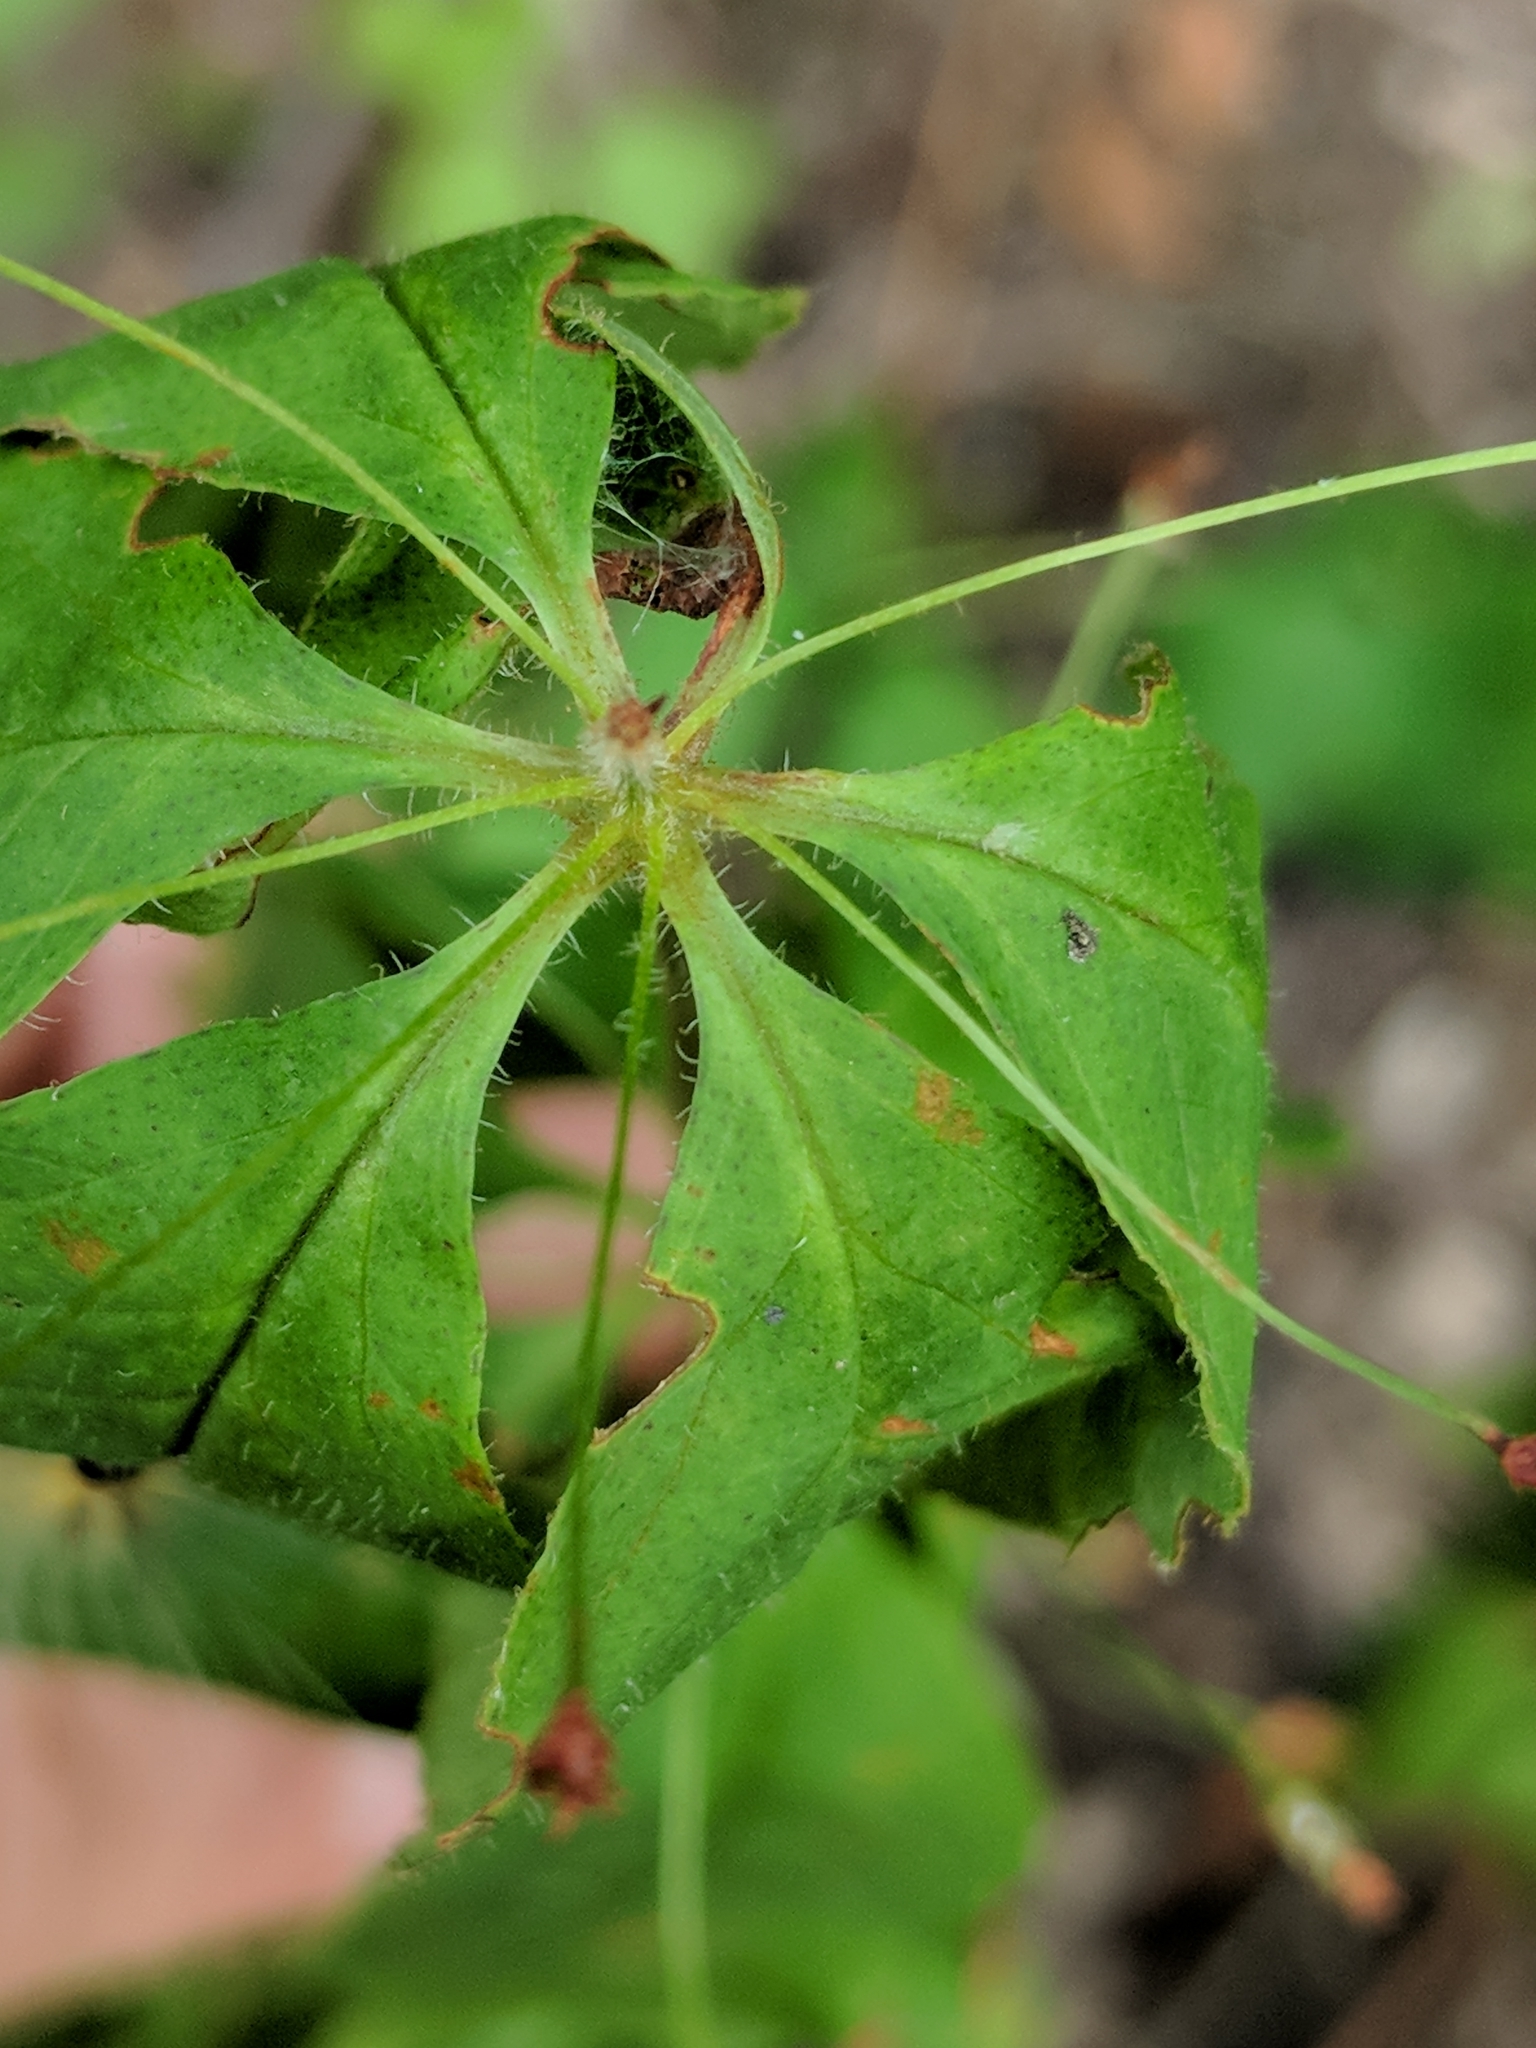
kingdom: Plantae
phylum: Tracheophyta
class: Magnoliopsida
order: Ericales
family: Primulaceae
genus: Lysimachia
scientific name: Lysimachia quadrifolia
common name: Whorled loosestrife
